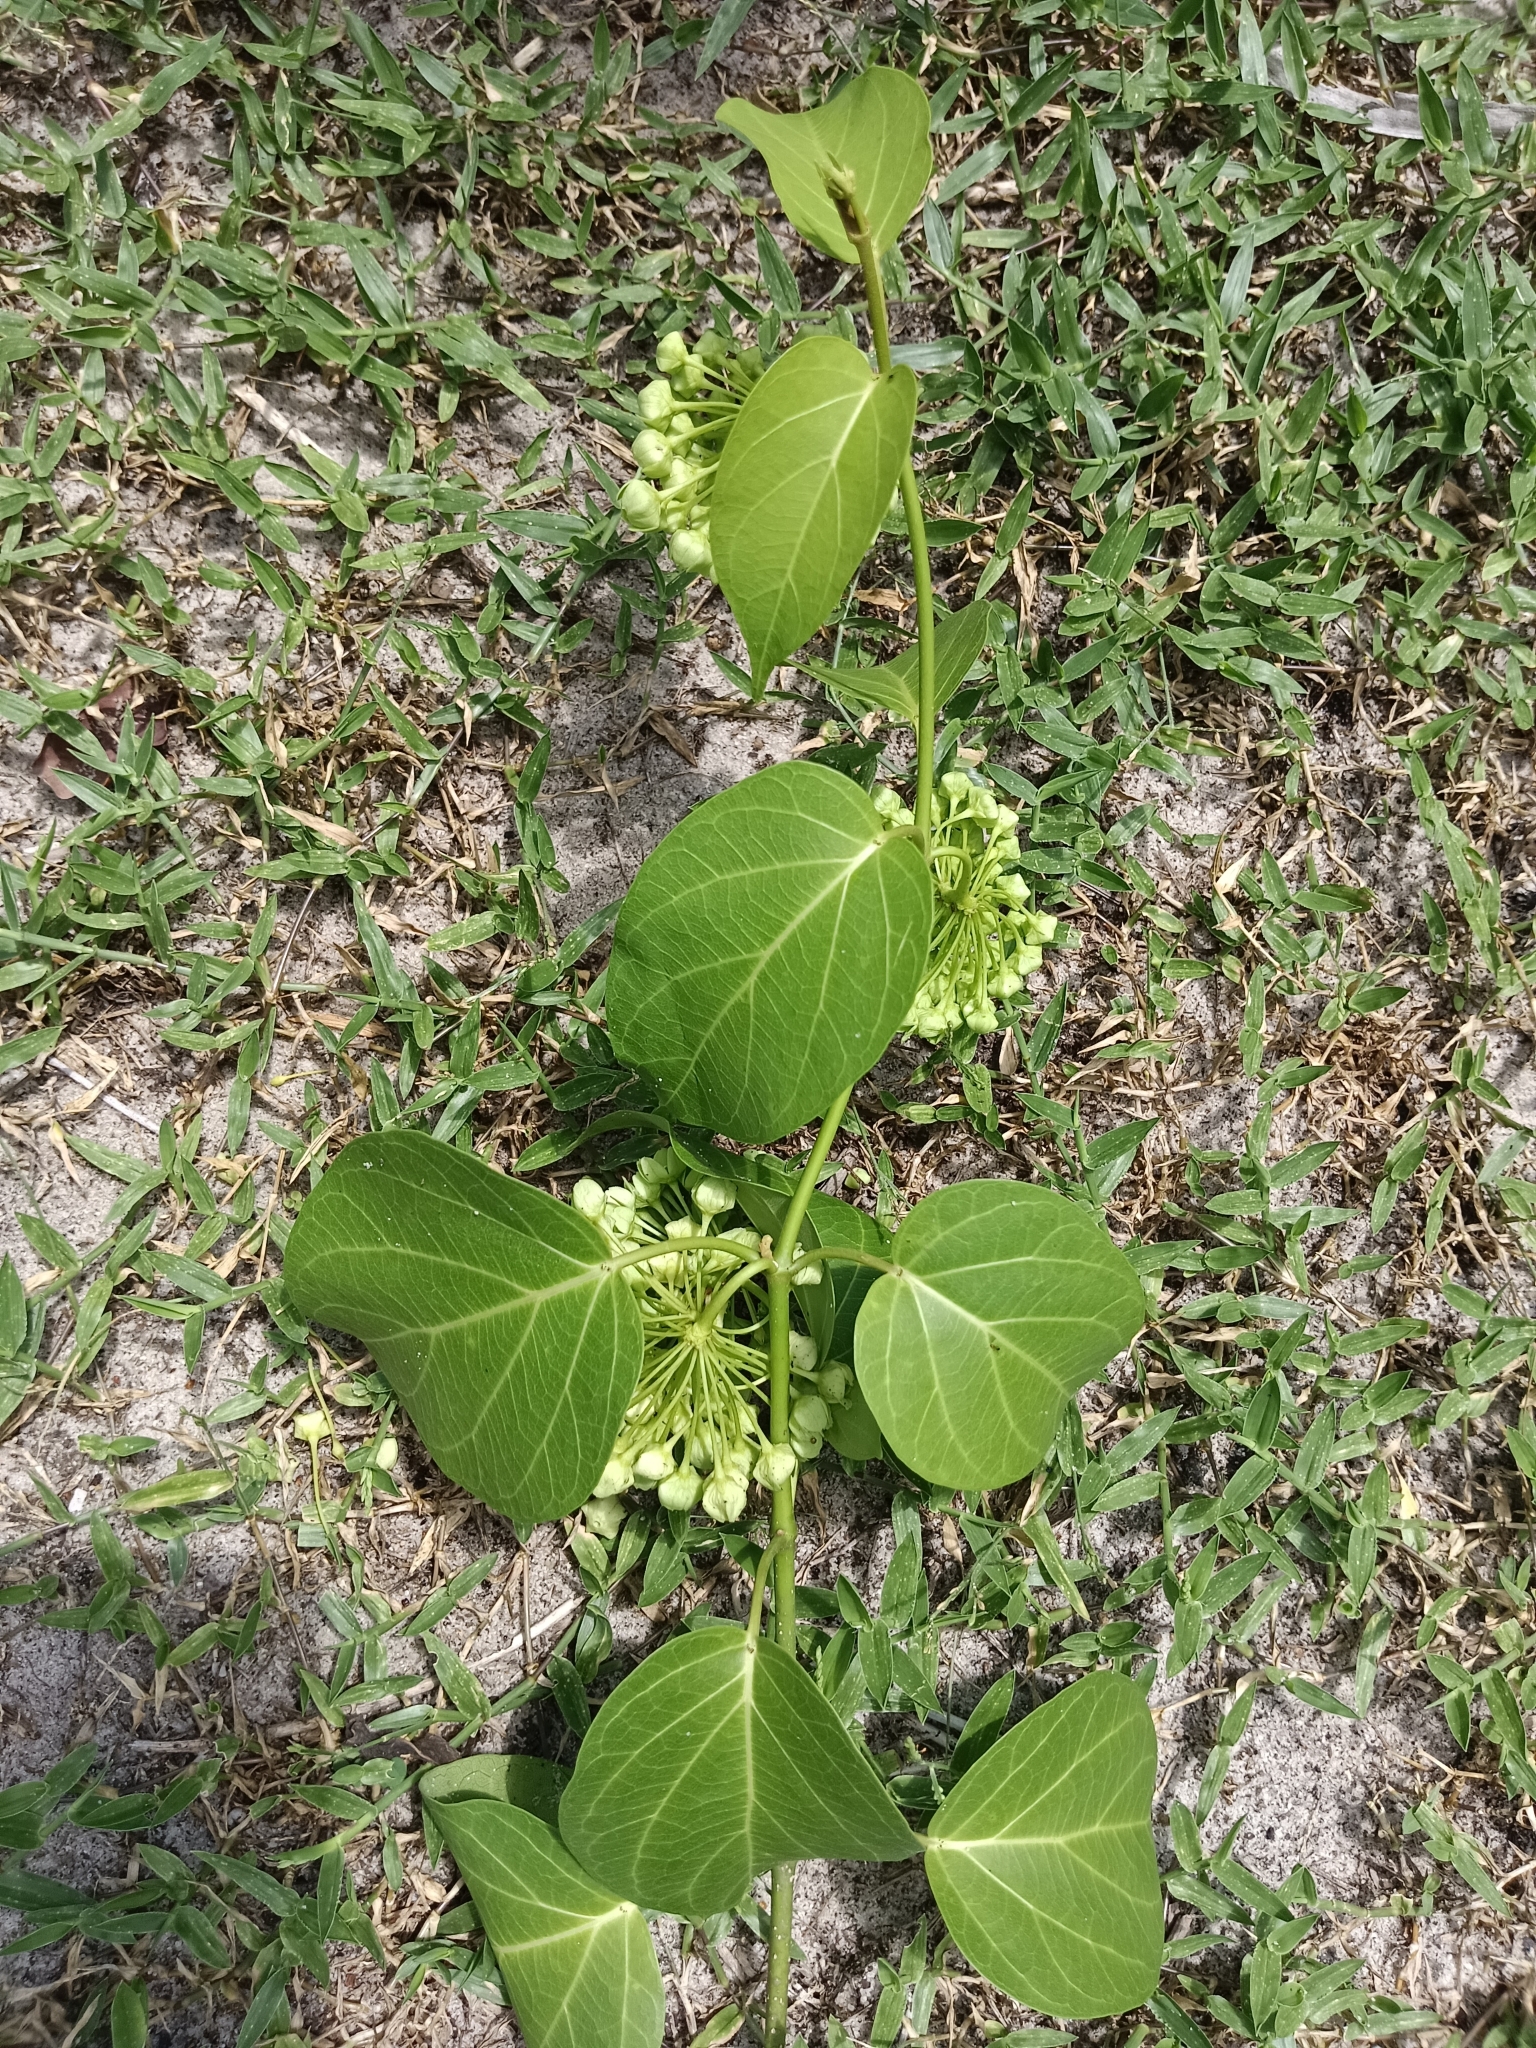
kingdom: Plantae
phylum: Tracheophyta
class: Magnoliopsida
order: Gentianales
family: Apocynaceae
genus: Stephanotis
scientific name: Stephanotis volubilis
